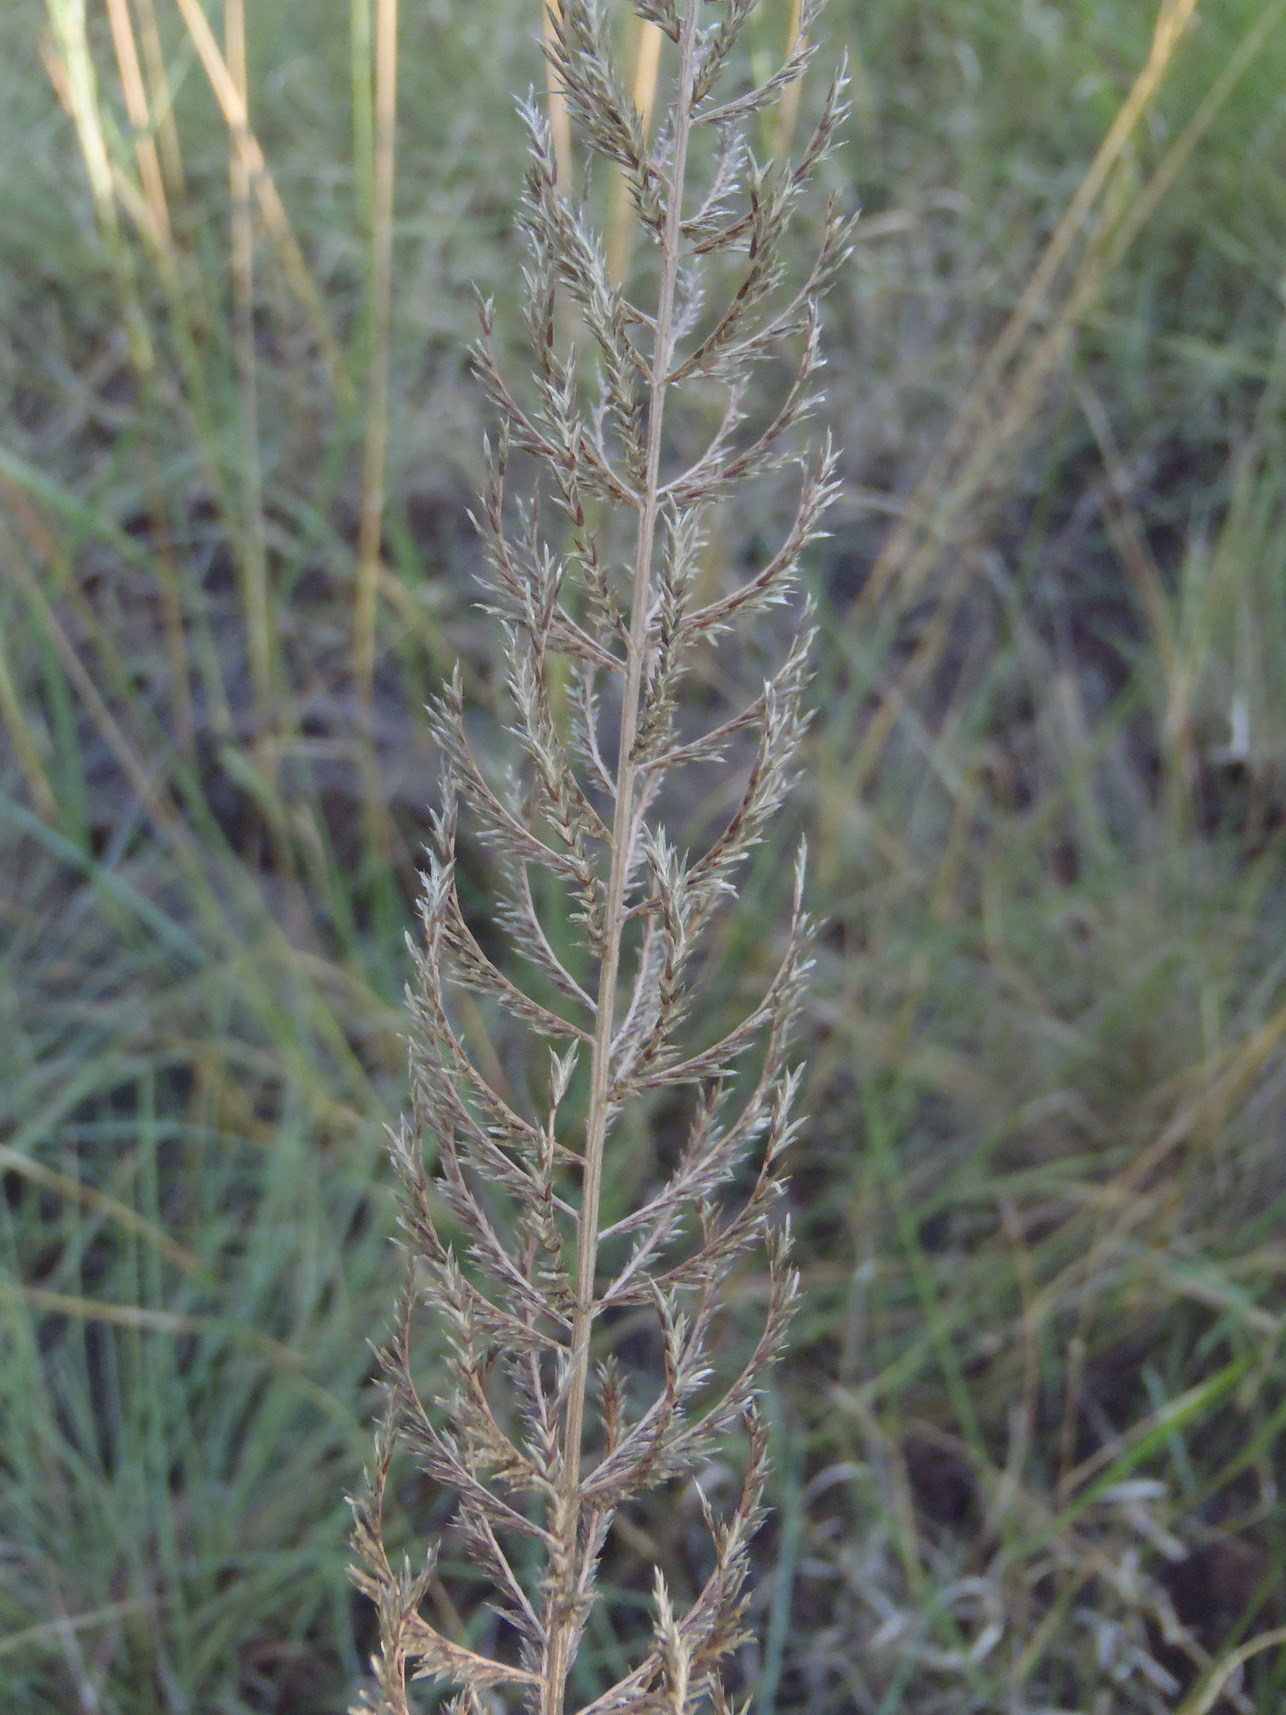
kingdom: Plantae
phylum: Tracheophyta
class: Liliopsida
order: Poales
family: Poaceae
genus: Pogonarthria
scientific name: Pogonarthria squarrosa
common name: Grass
